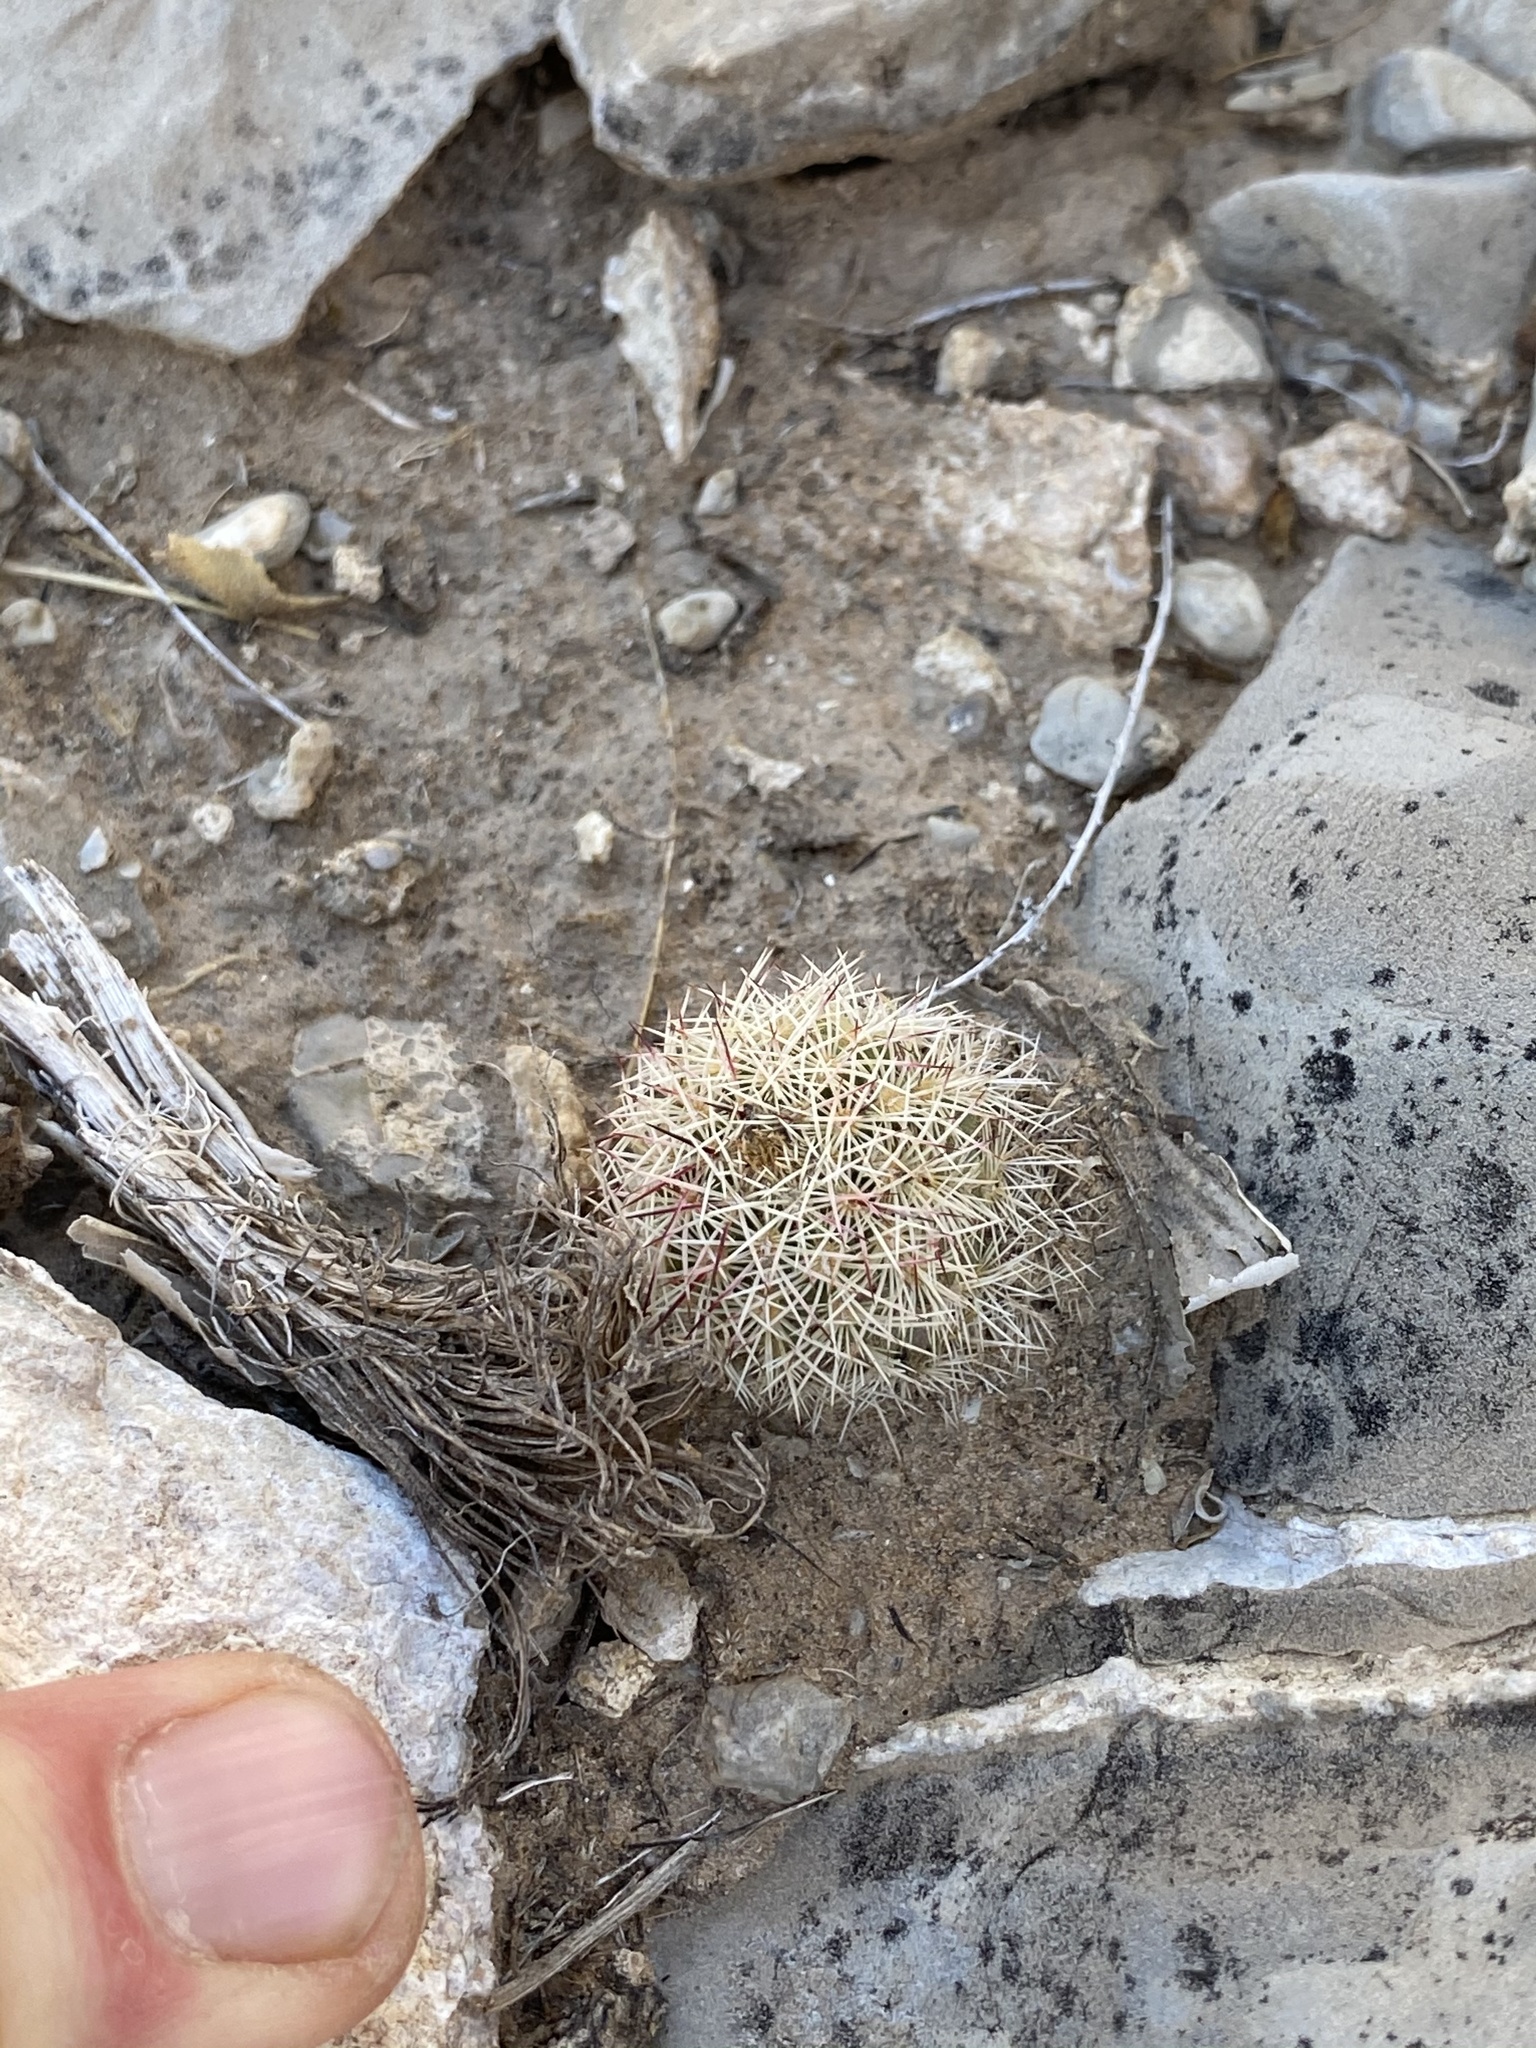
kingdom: Plantae
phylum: Tracheophyta
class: Magnoliopsida
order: Caryophyllales
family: Cactaceae
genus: Echinocereus
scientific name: Echinocereus viridiflorus
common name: Nylon hedgehog cactus
